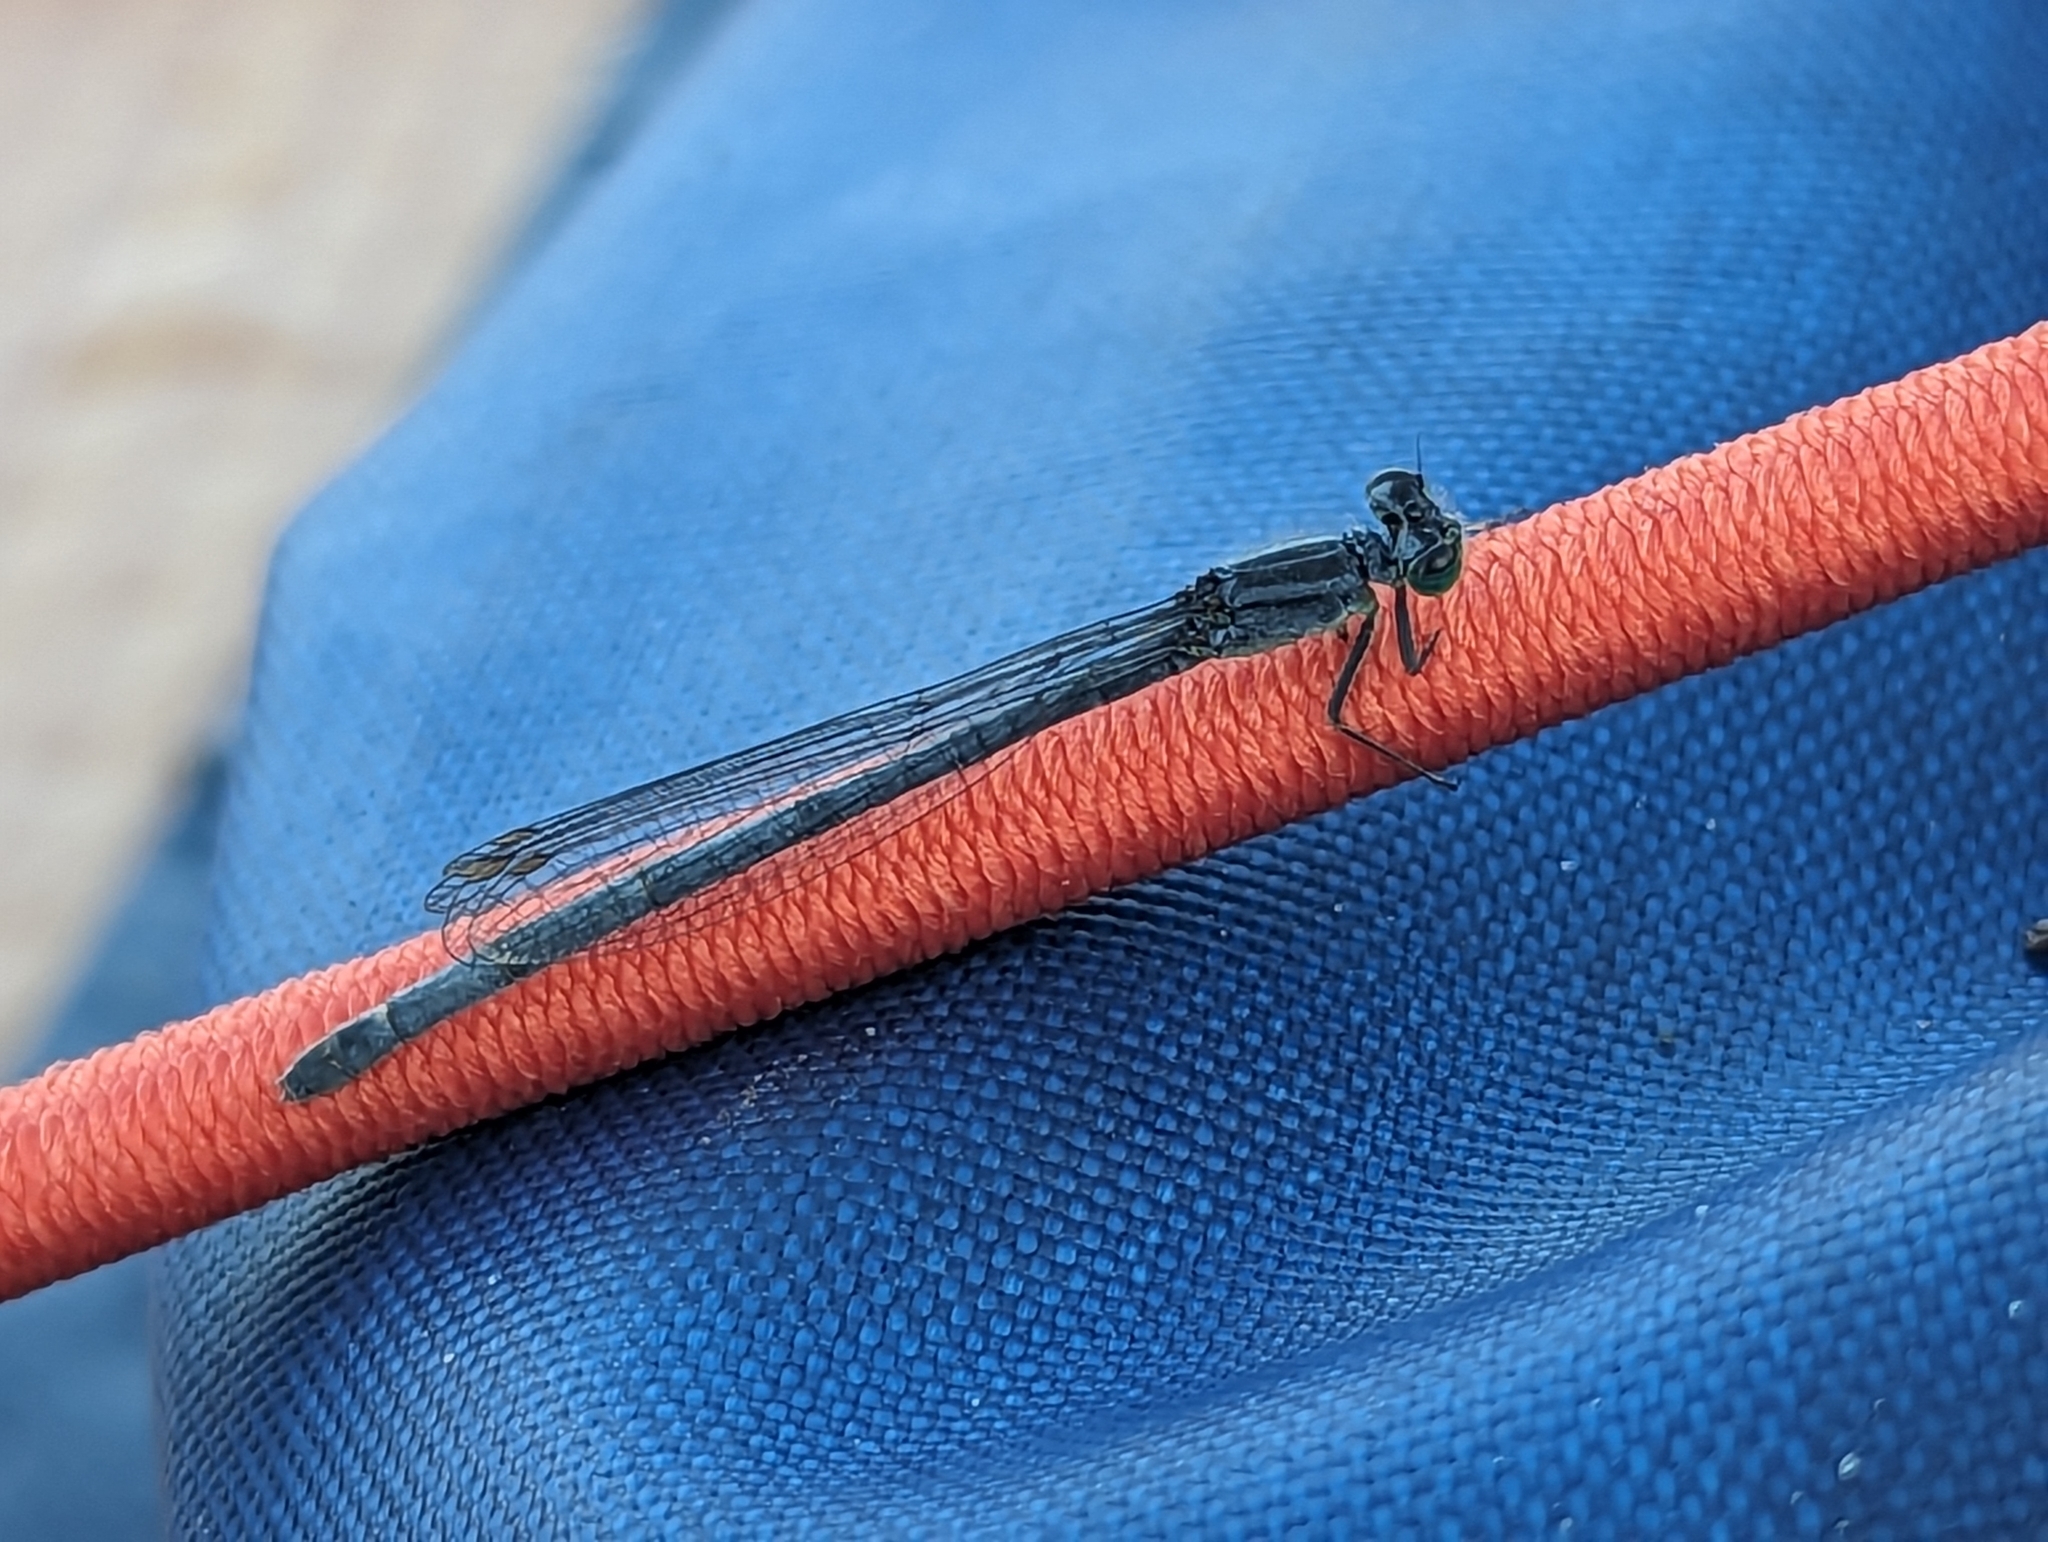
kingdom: Animalia
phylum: Arthropoda
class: Insecta
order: Odonata
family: Coenagrionidae
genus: Ischnura
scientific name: Ischnura verticalis
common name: Eastern forktail
